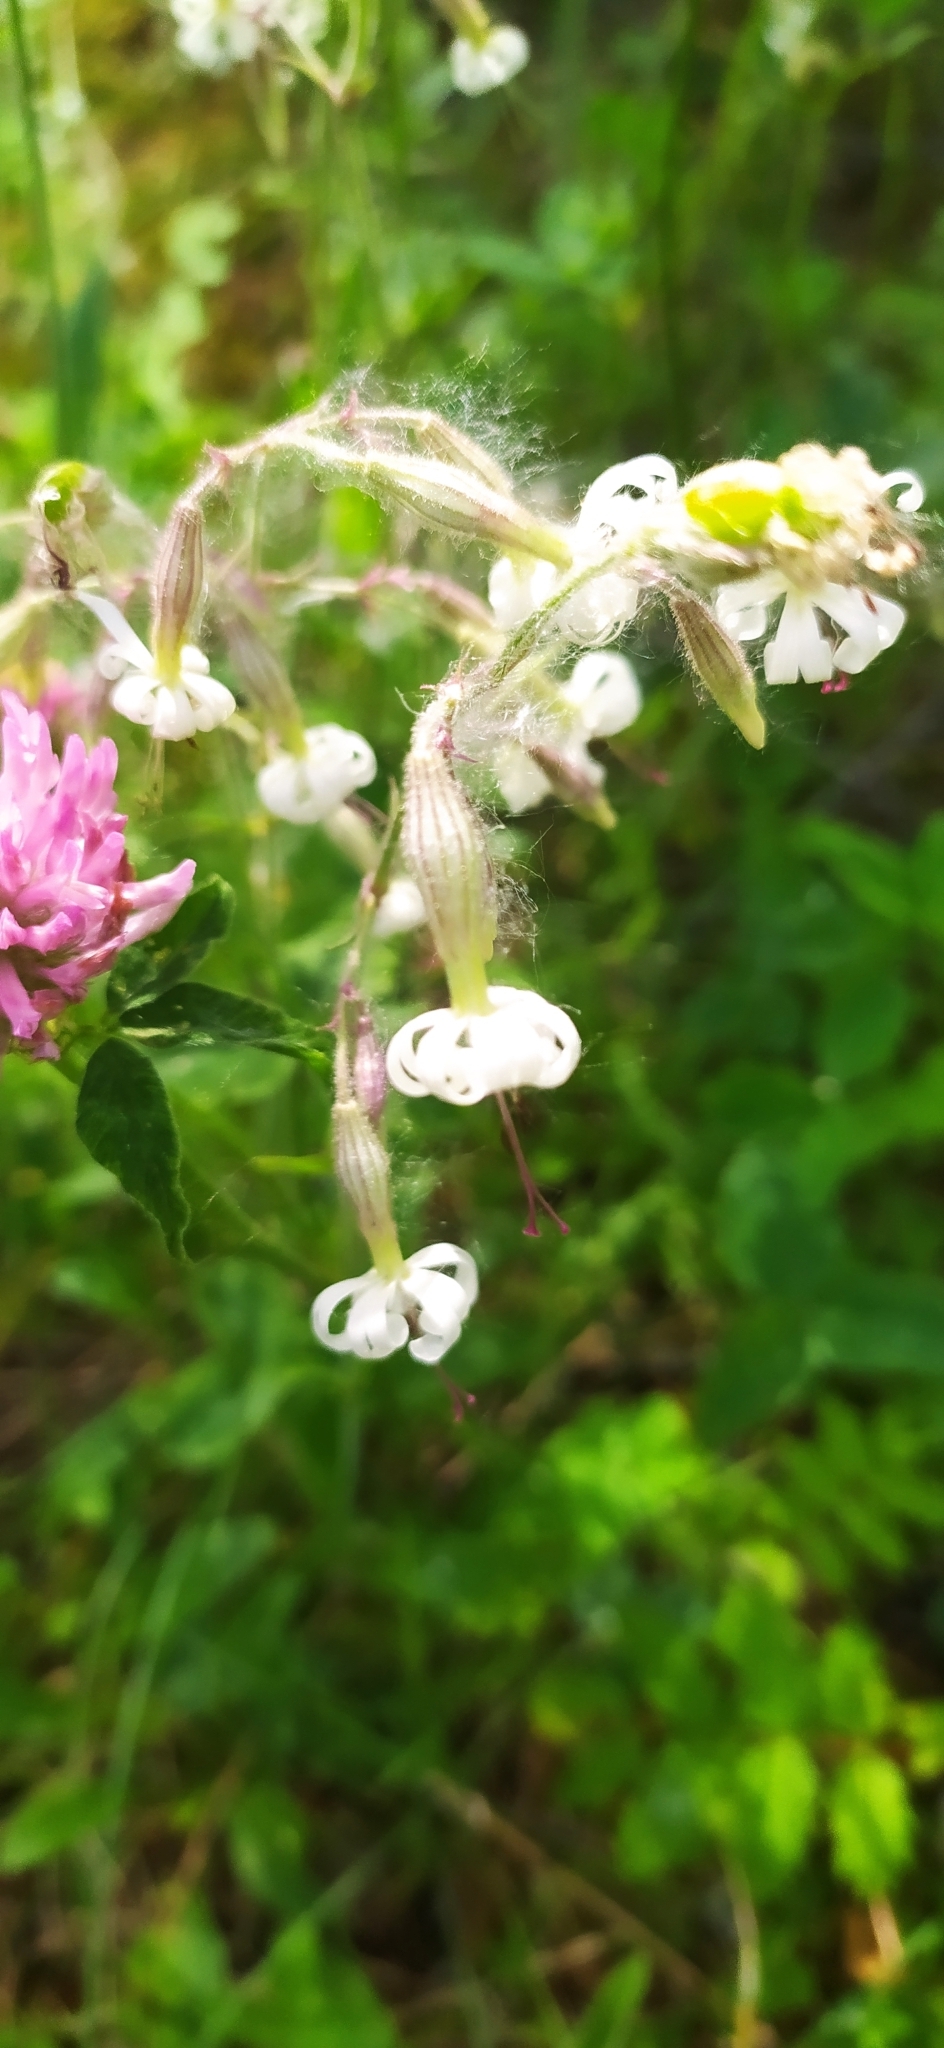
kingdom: Plantae
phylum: Tracheophyta
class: Magnoliopsida
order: Caryophyllales
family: Caryophyllaceae
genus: Silene
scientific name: Silene nutans
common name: Nottingham catchfly
